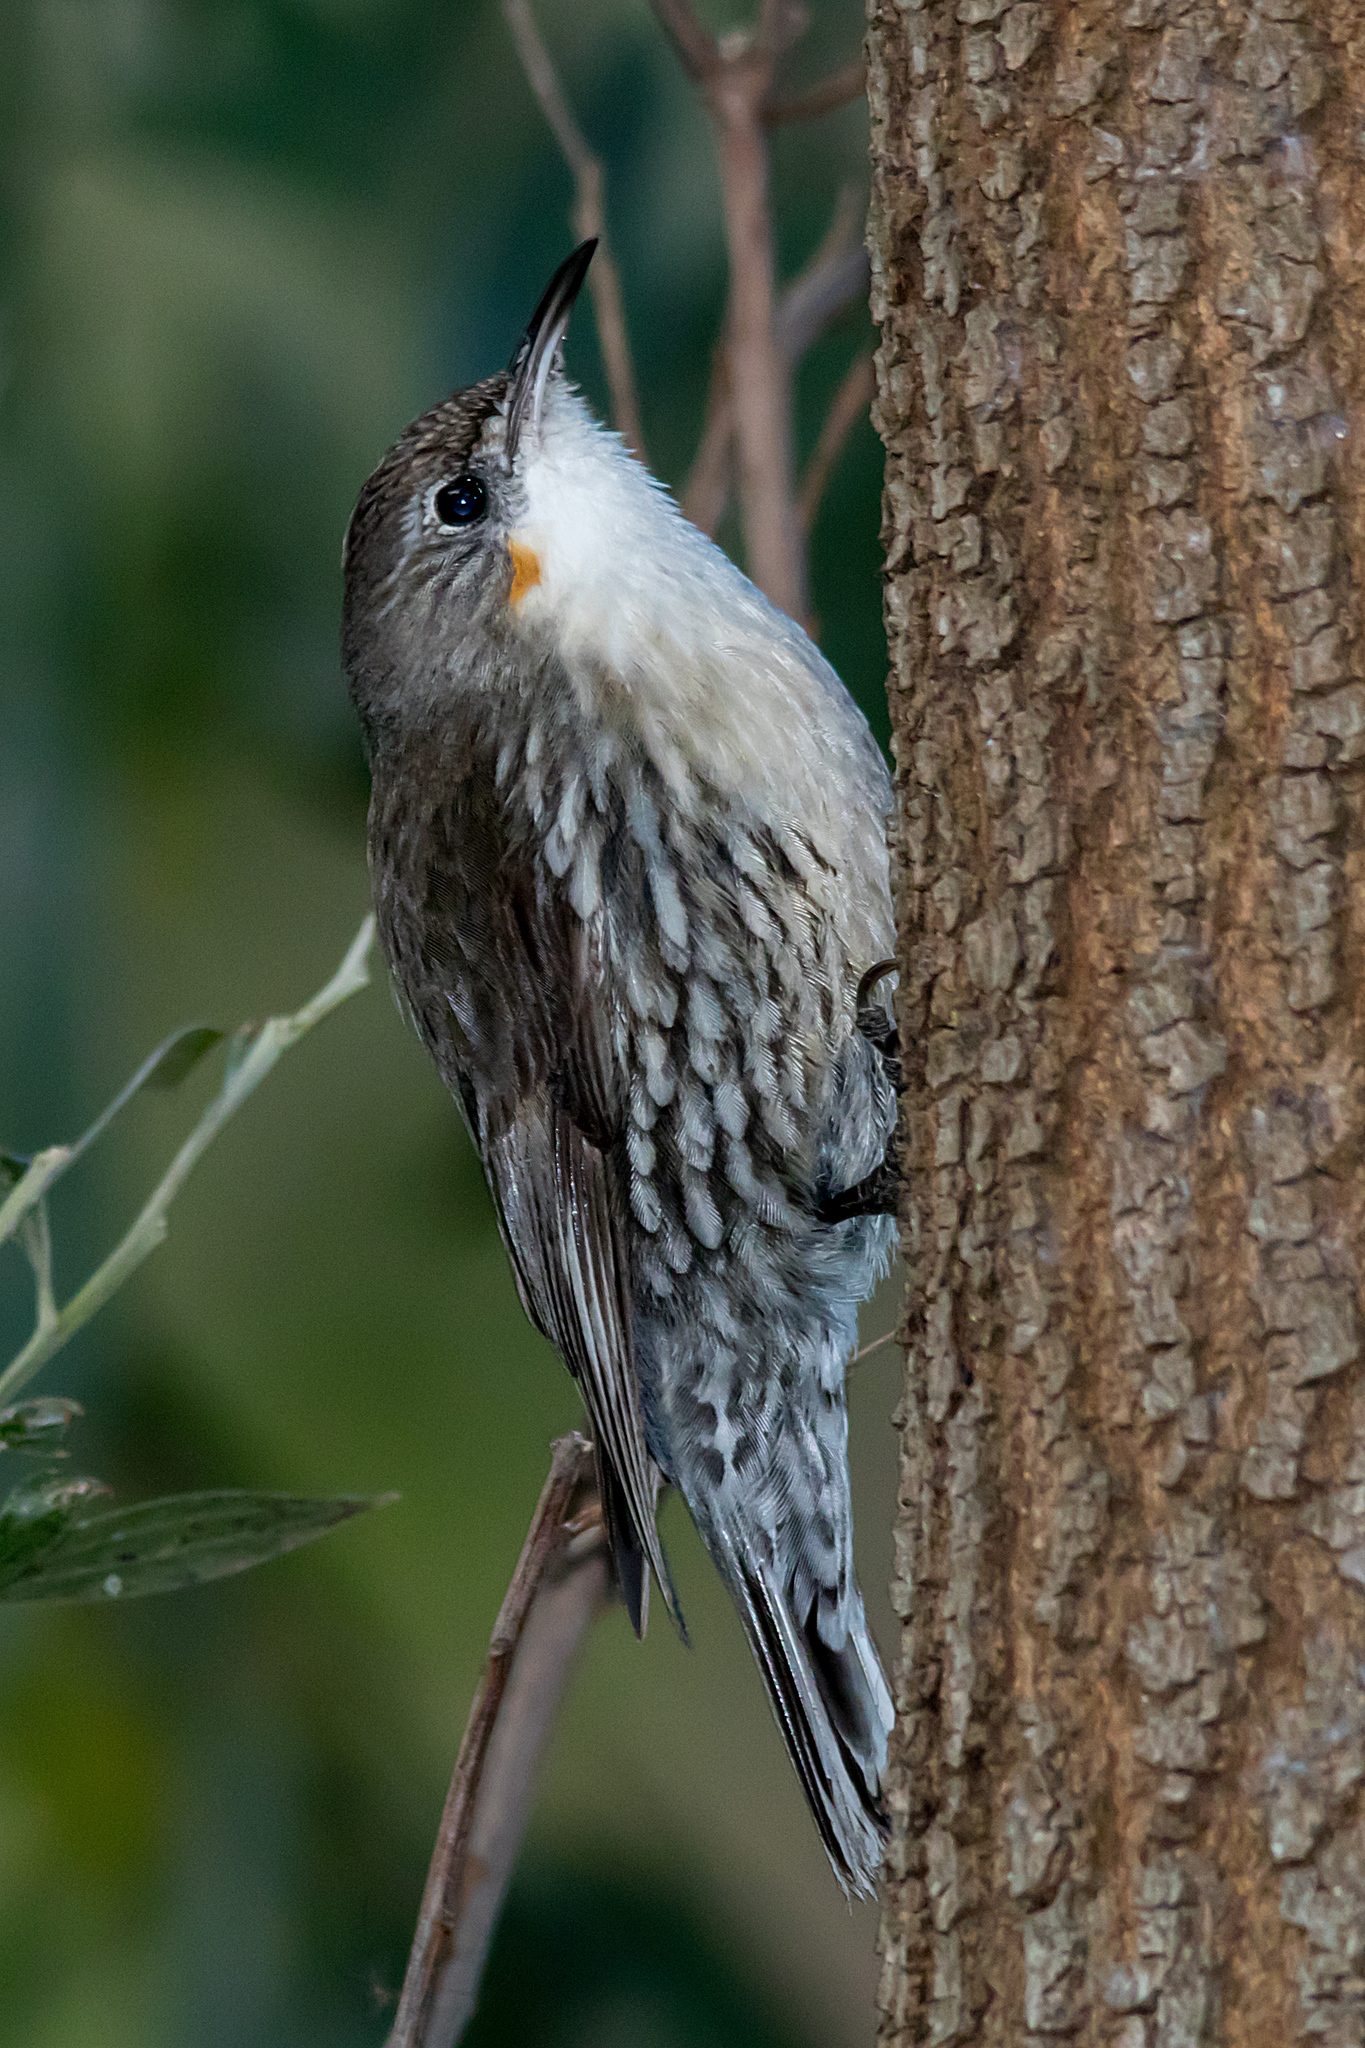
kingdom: Animalia
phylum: Chordata
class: Aves
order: Passeriformes
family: Climacteridae
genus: Cormobates
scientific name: Cormobates leucophaea
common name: White-throated treecreeper
